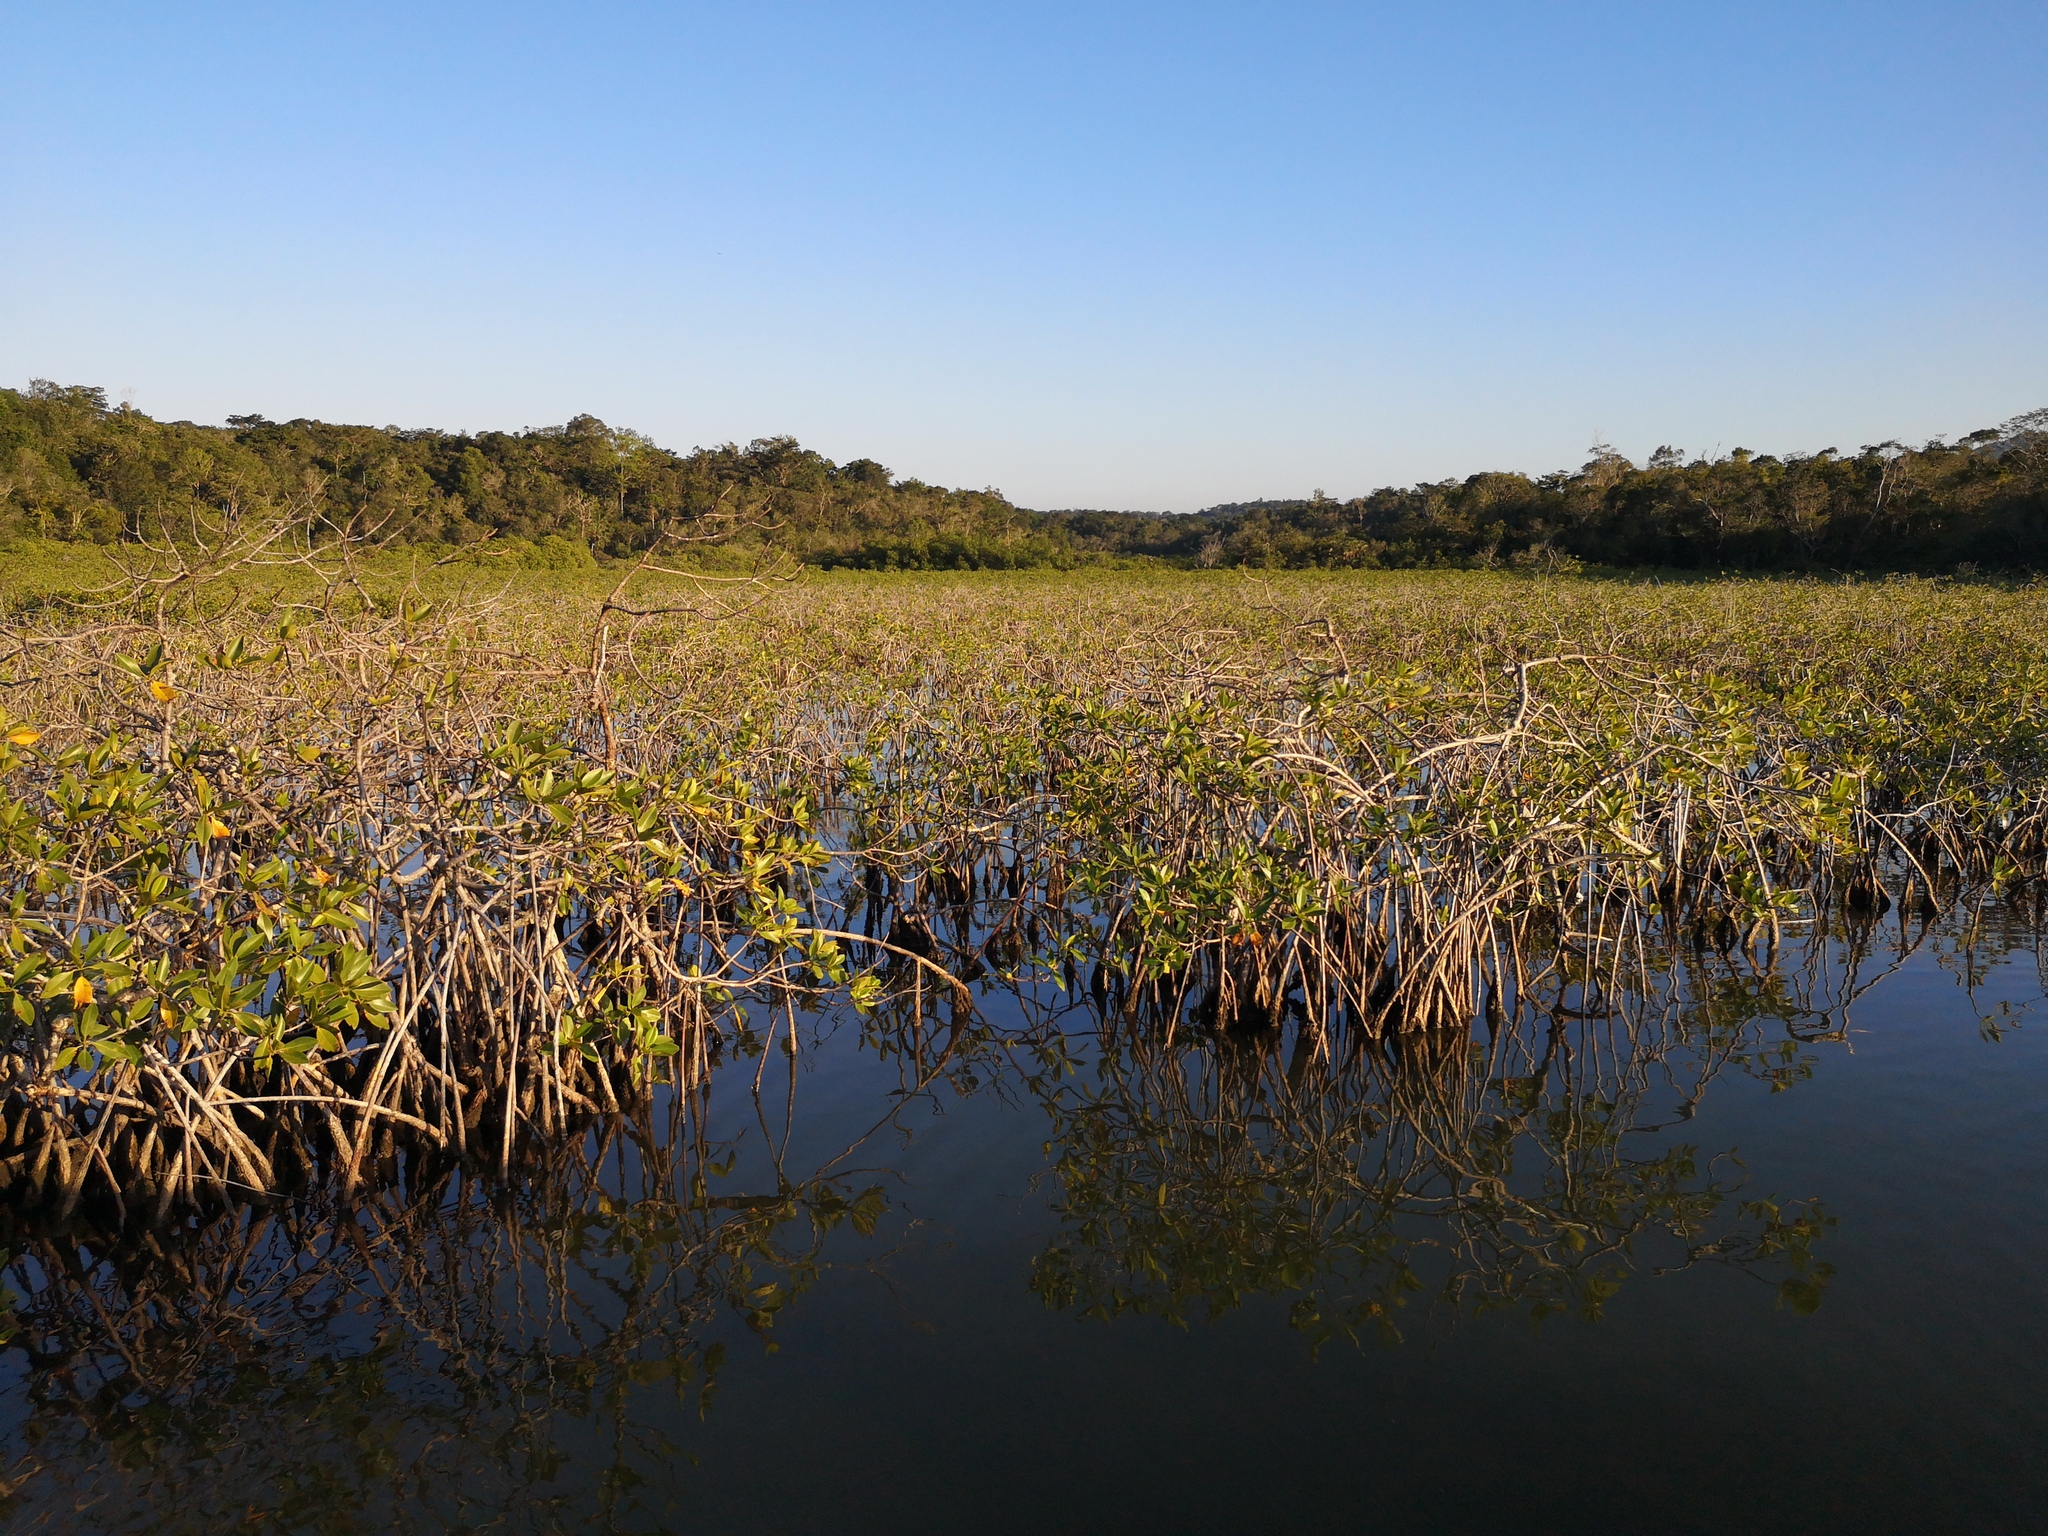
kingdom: Plantae
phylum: Tracheophyta
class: Magnoliopsida
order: Malpighiales
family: Rhizophoraceae
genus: Rhizophora
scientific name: Rhizophora mangle
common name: Red mangrove
